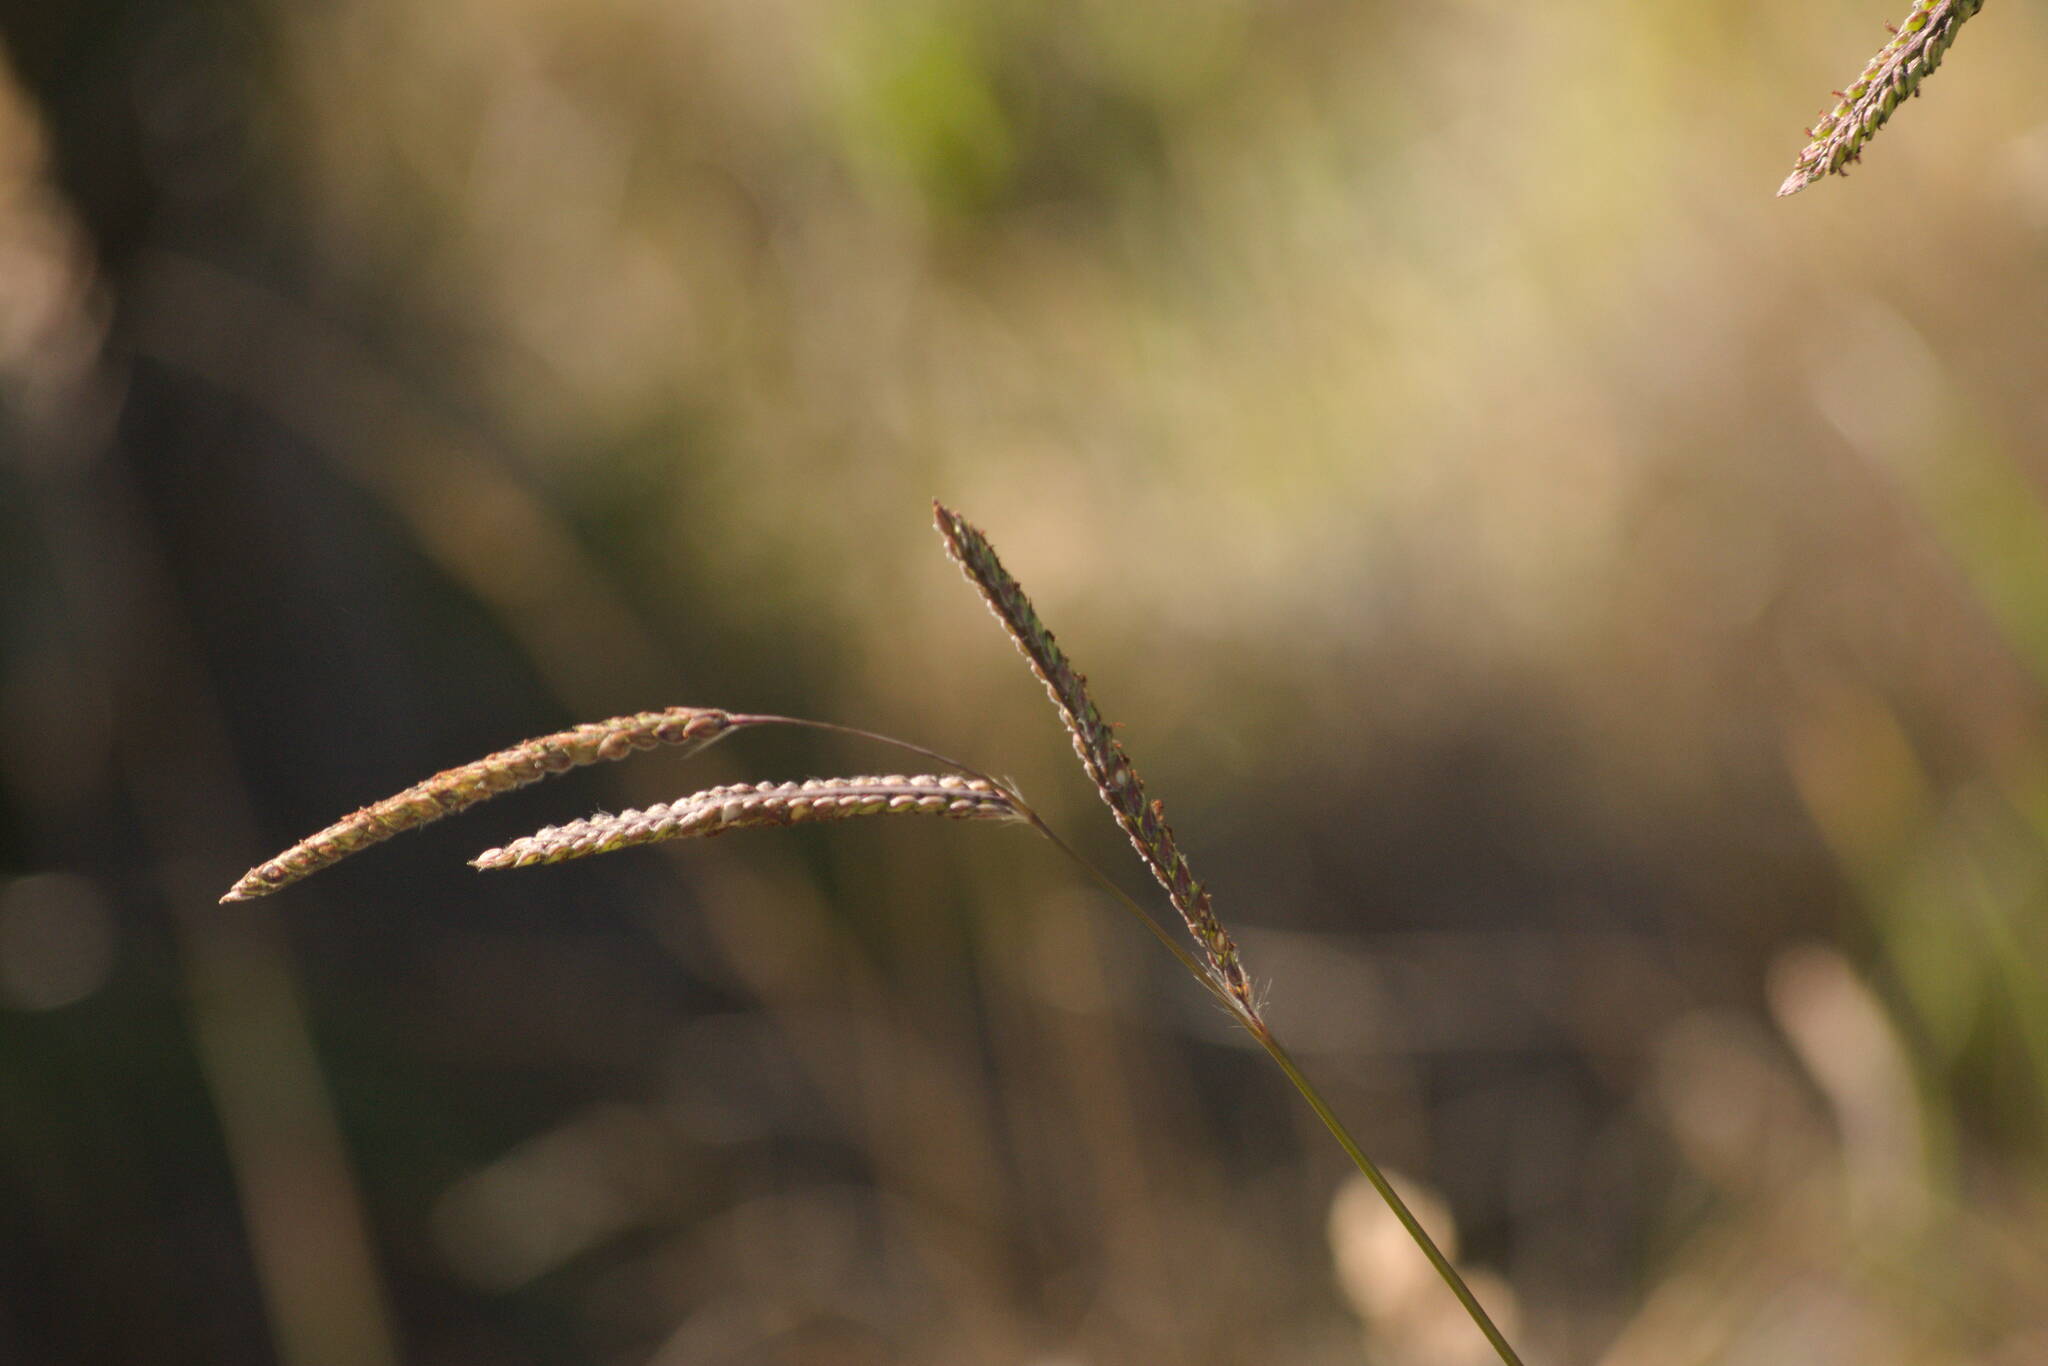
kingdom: Plantae
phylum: Tracheophyta
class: Liliopsida
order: Poales
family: Poaceae
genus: Paspalum
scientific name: Paspalum dilatatum
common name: Dallisgrass
